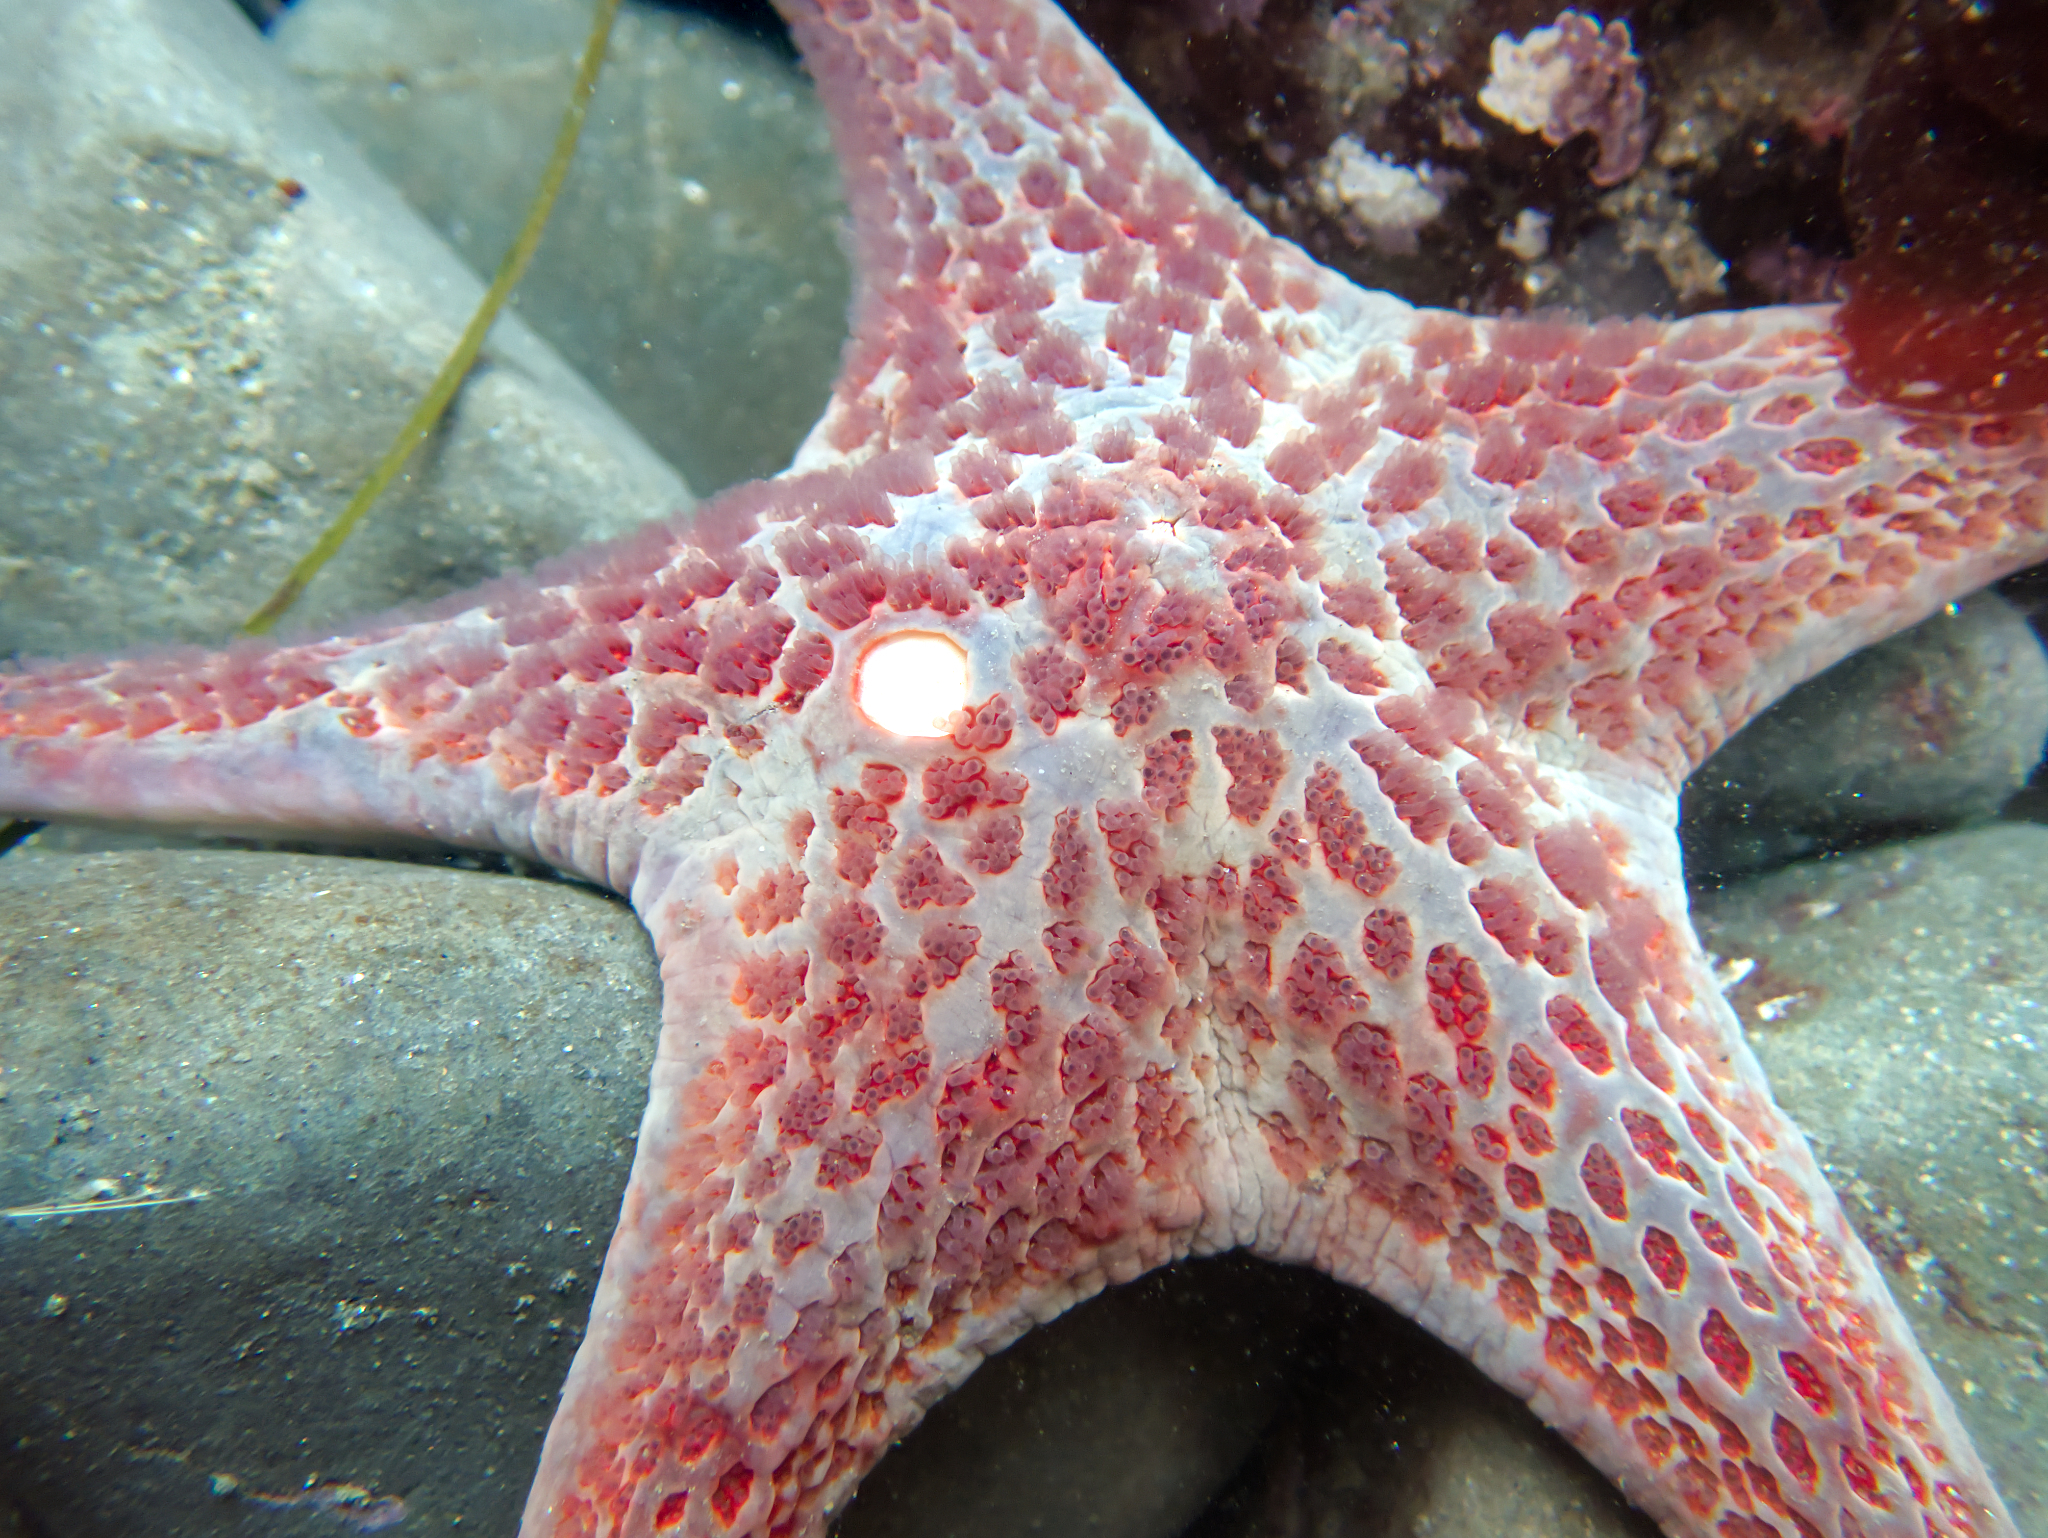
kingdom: Animalia
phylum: Echinodermata
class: Asteroidea
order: Valvatida
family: Asteropseidae
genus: Dermasterias
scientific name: Dermasterias imbricata
